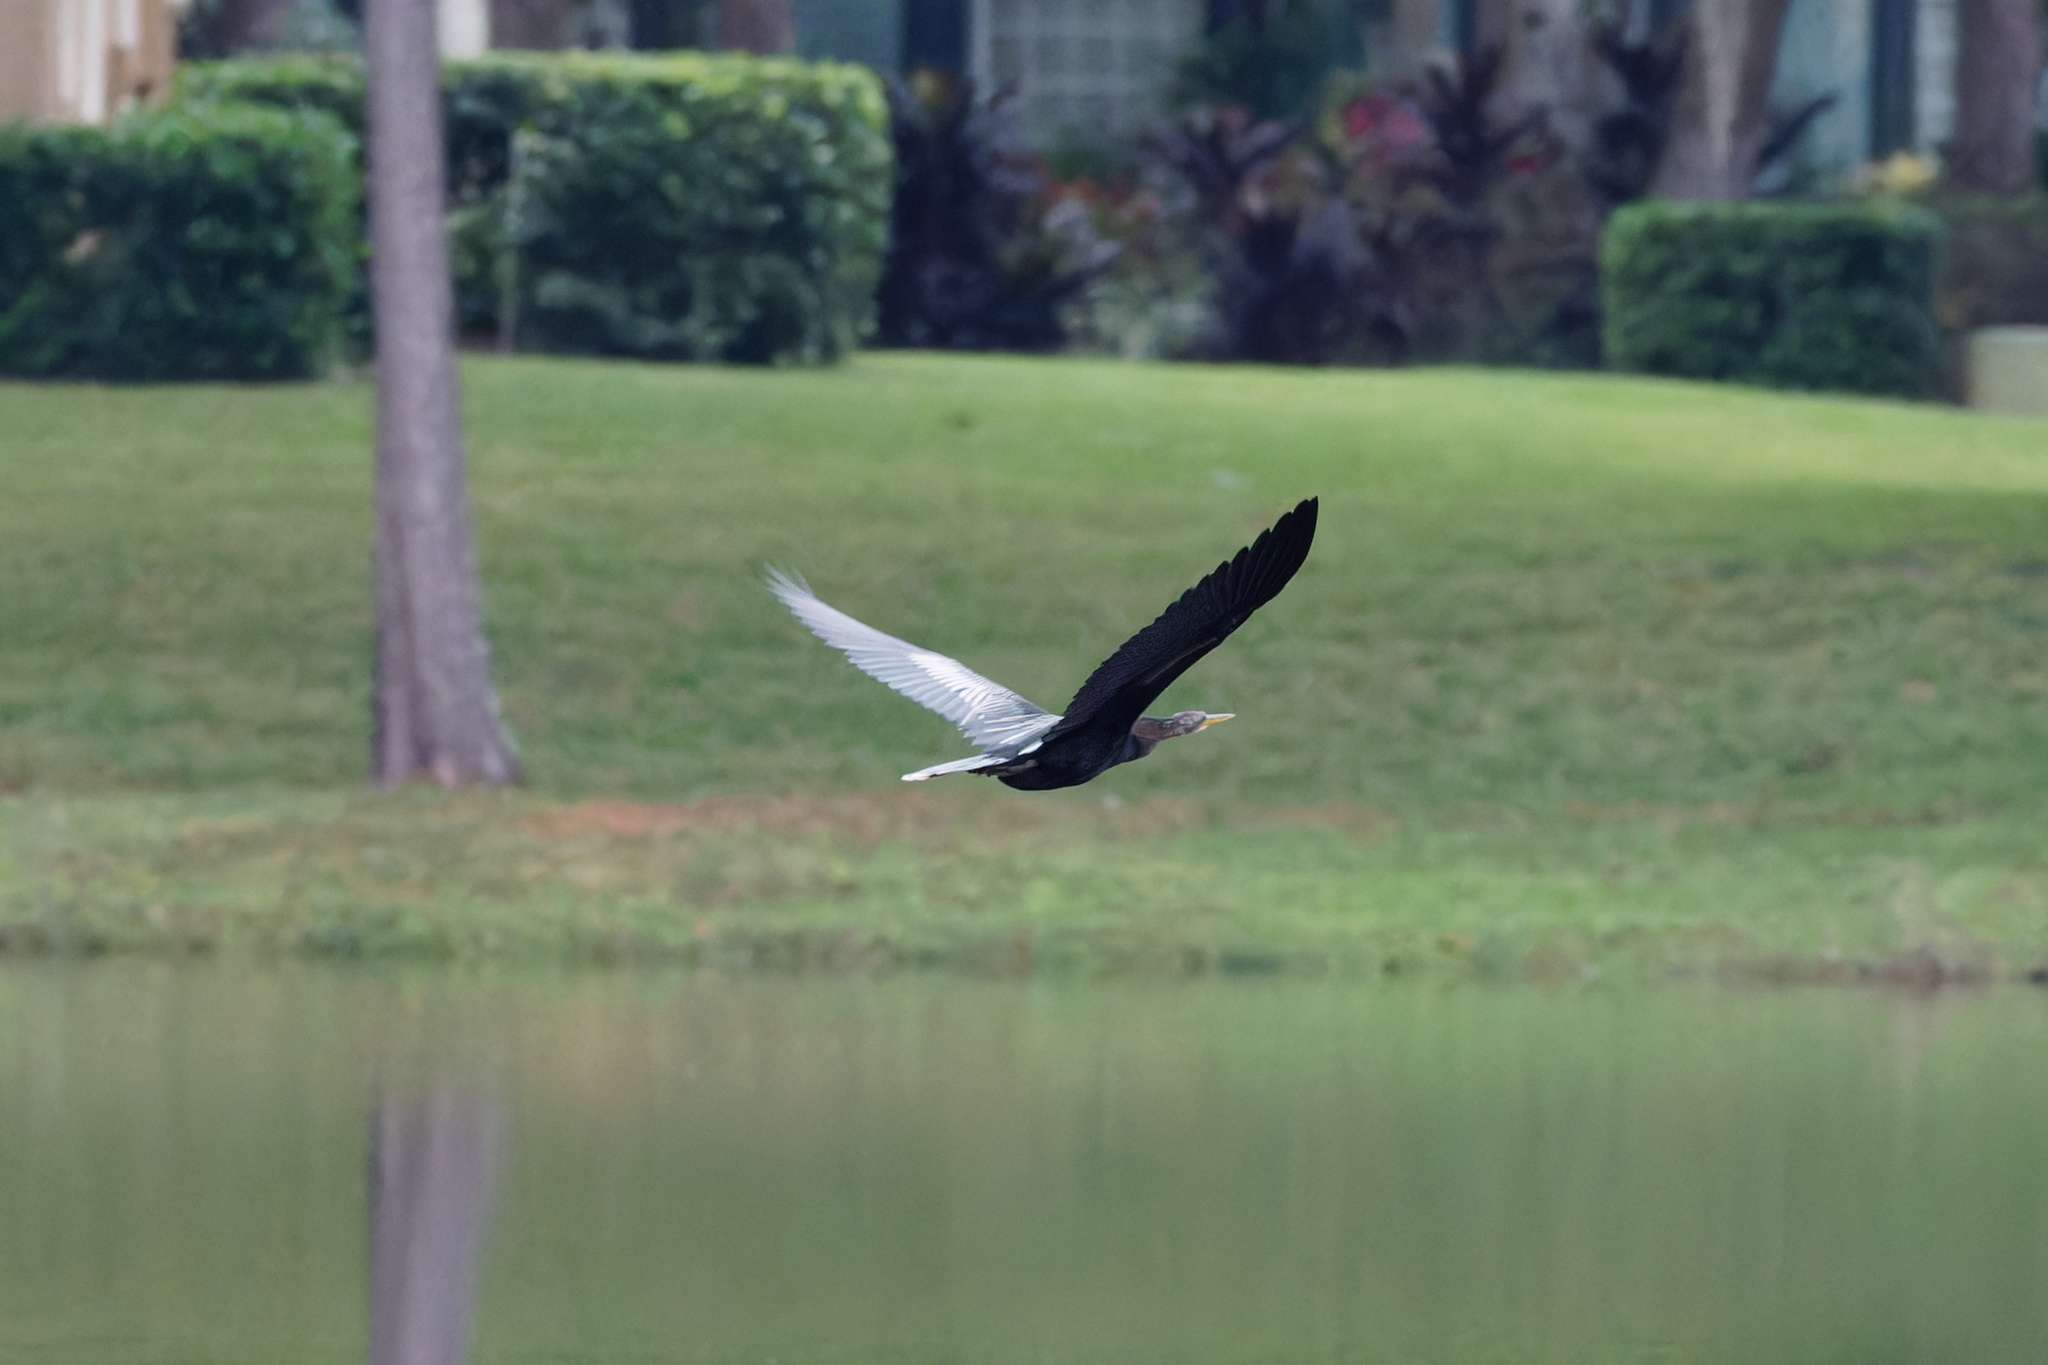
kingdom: Animalia
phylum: Chordata
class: Aves
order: Suliformes
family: Anhingidae
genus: Anhinga
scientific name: Anhinga anhinga
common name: Anhinga
